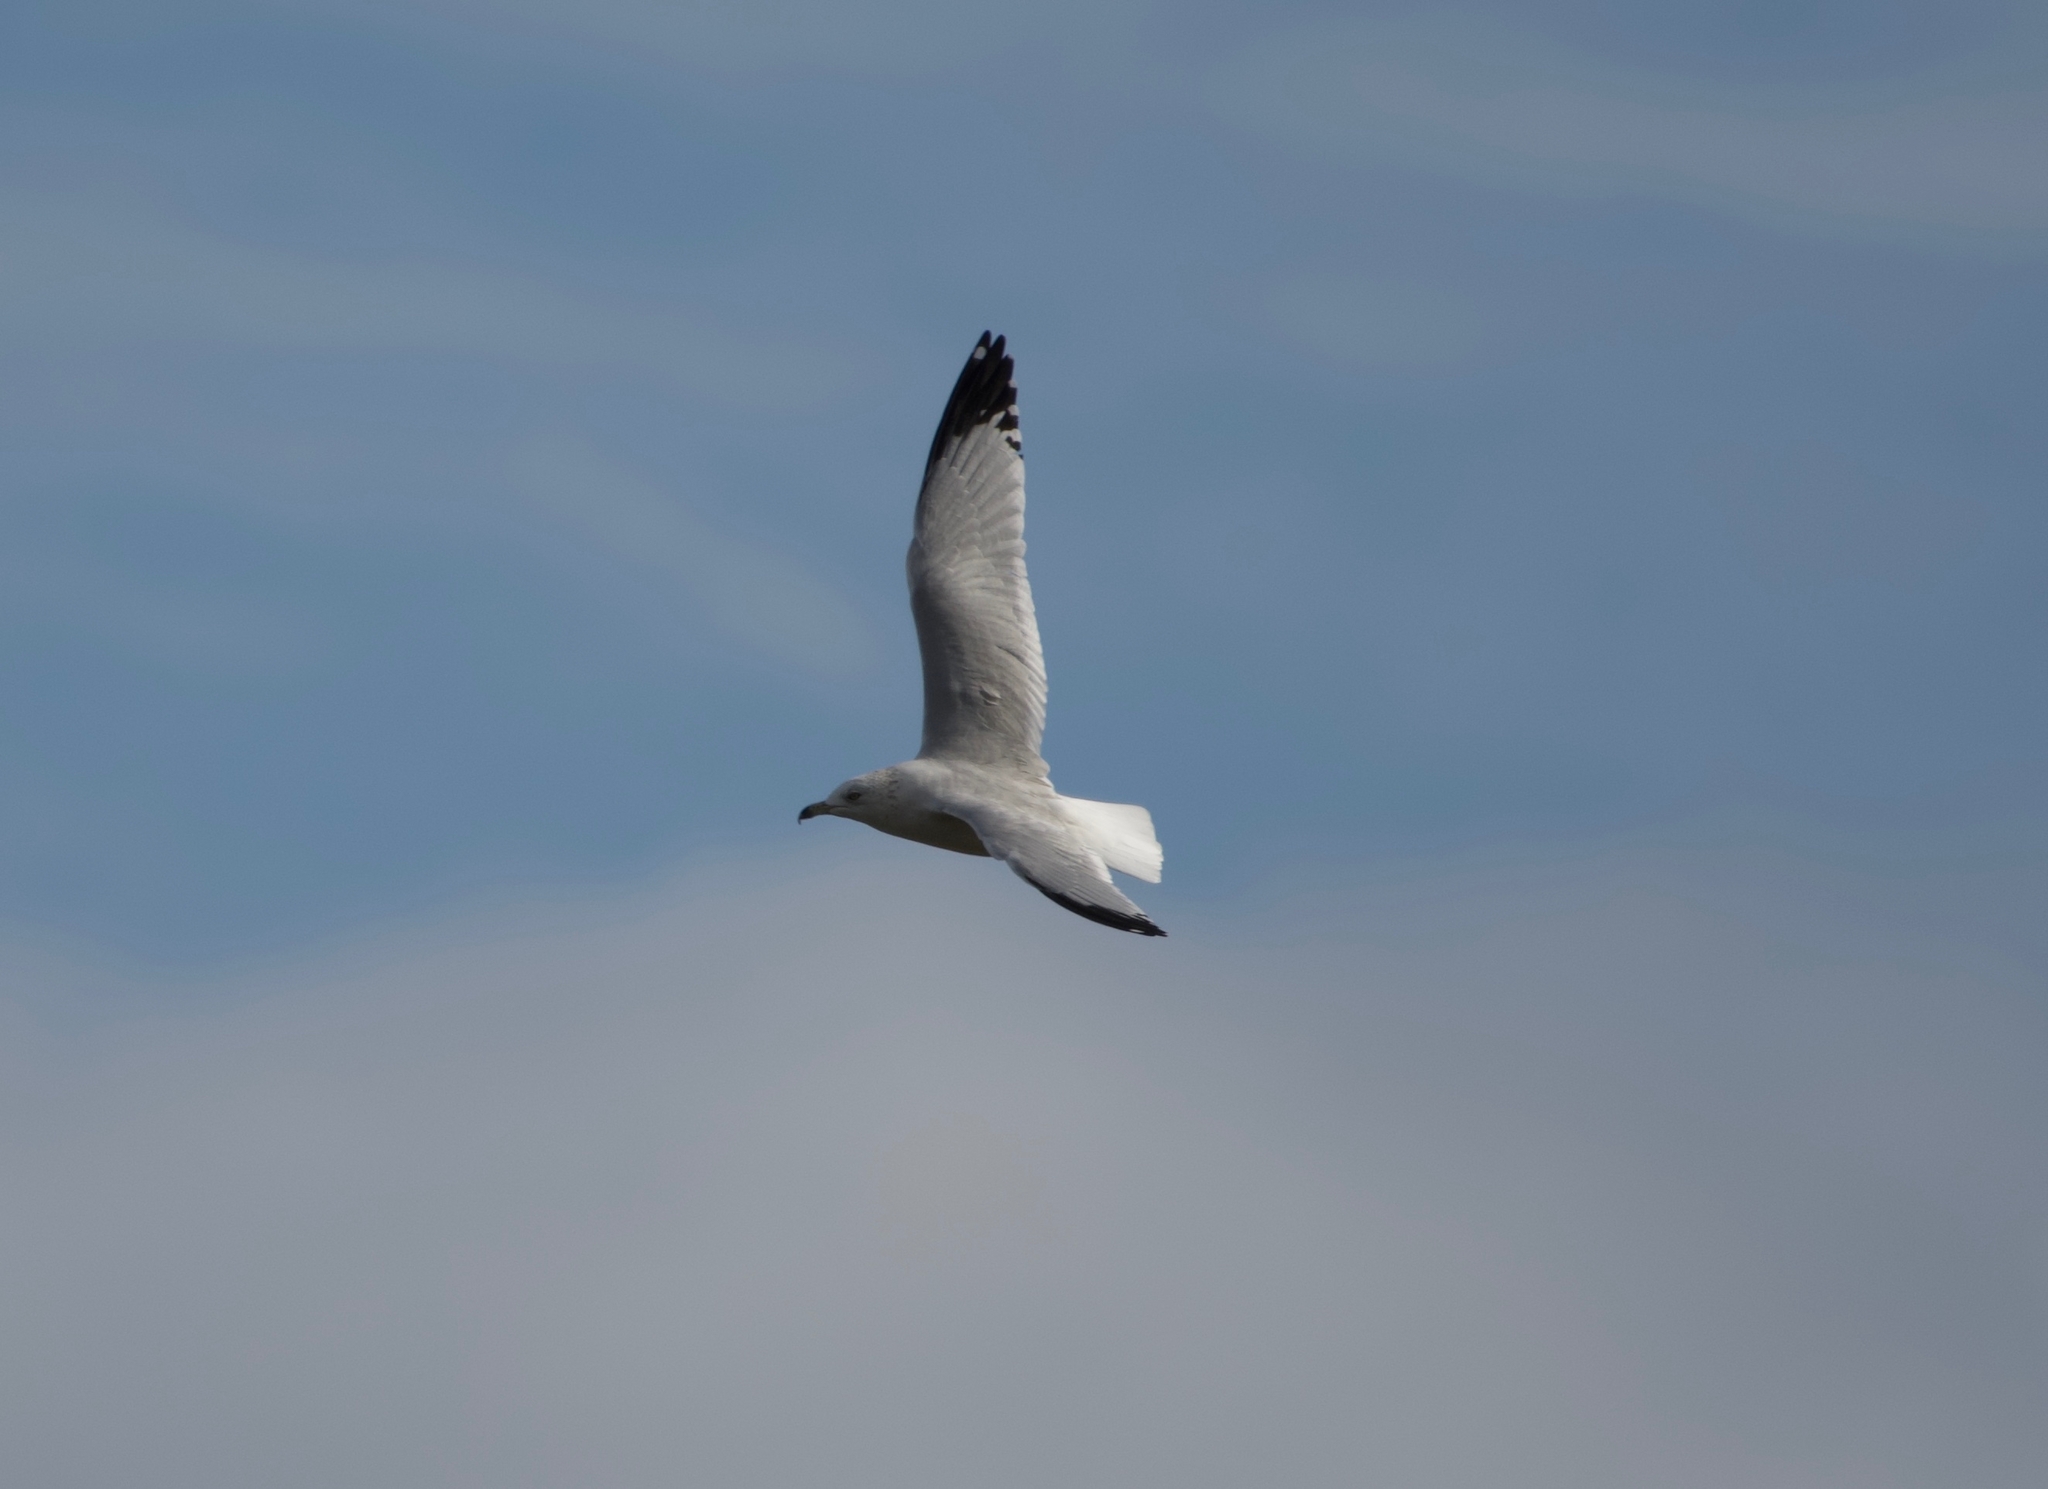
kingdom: Animalia
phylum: Chordata
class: Aves
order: Charadriiformes
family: Laridae
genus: Larus
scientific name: Larus delawarensis
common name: Ring-billed gull
